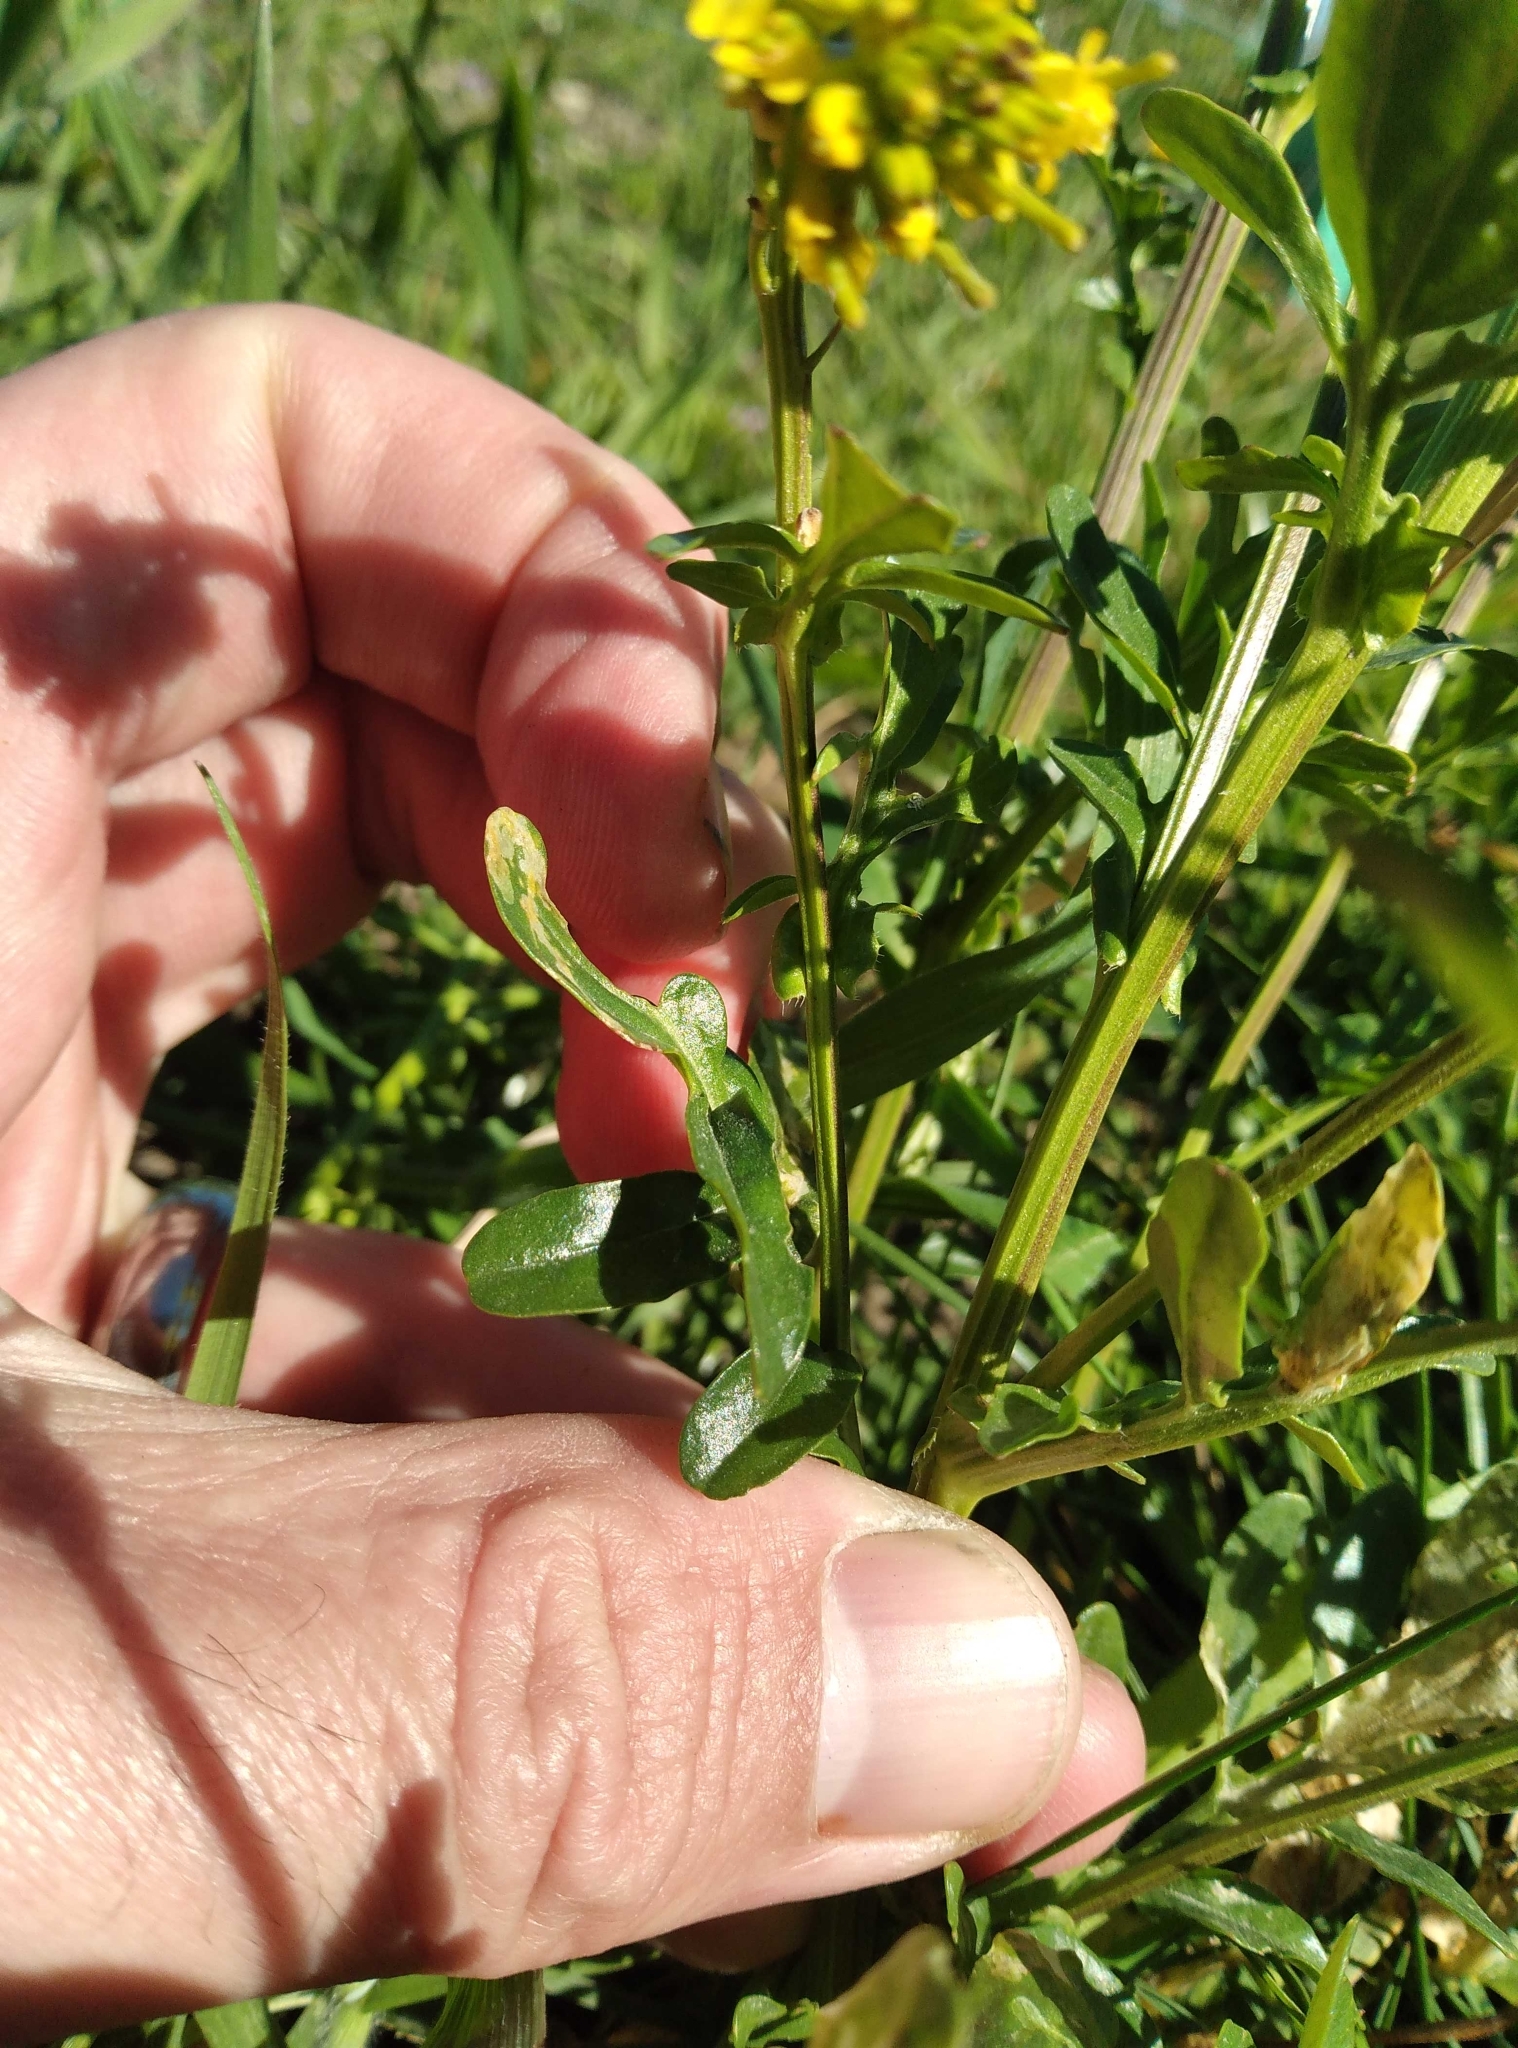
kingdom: Plantae
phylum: Tracheophyta
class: Magnoliopsida
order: Brassicales
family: Brassicaceae
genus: Barbarea
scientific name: Barbarea intermedia
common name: Medium-flowered winter-cress
